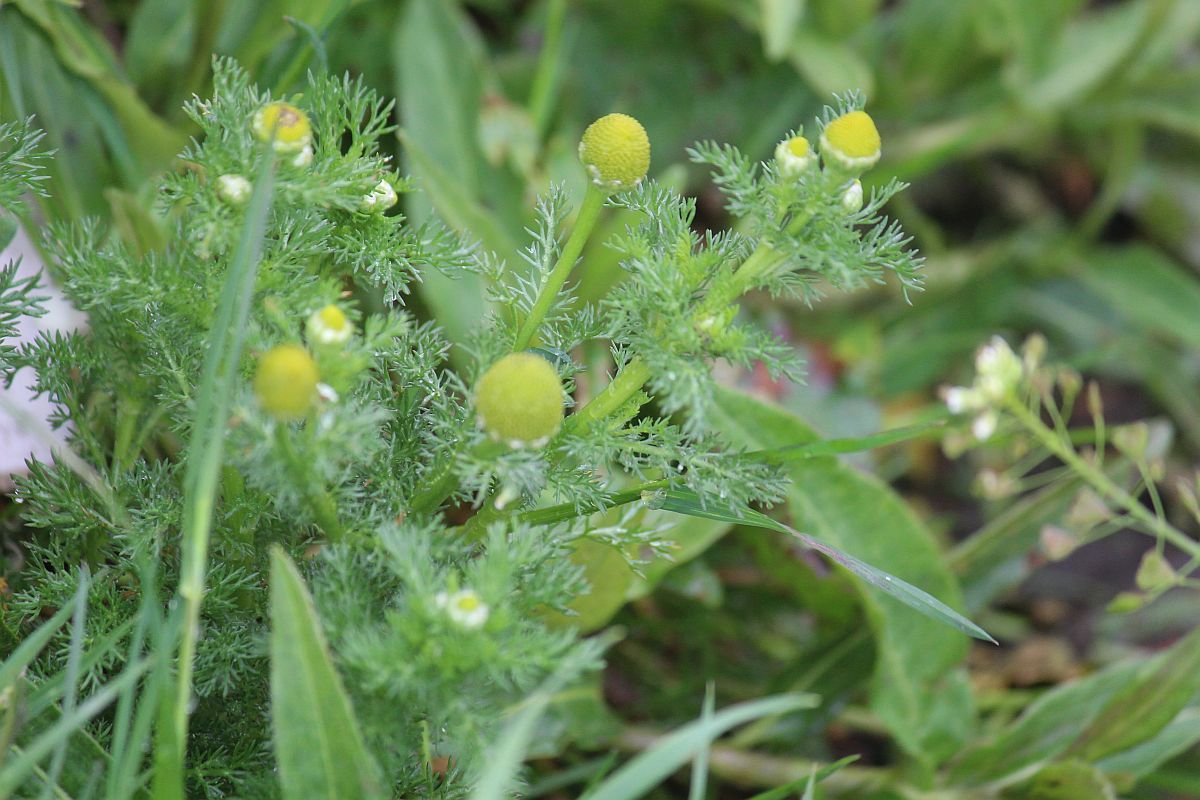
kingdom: Plantae
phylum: Tracheophyta
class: Magnoliopsida
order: Asterales
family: Asteraceae
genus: Matricaria
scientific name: Matricaria discoidea
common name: Disc mayweed
